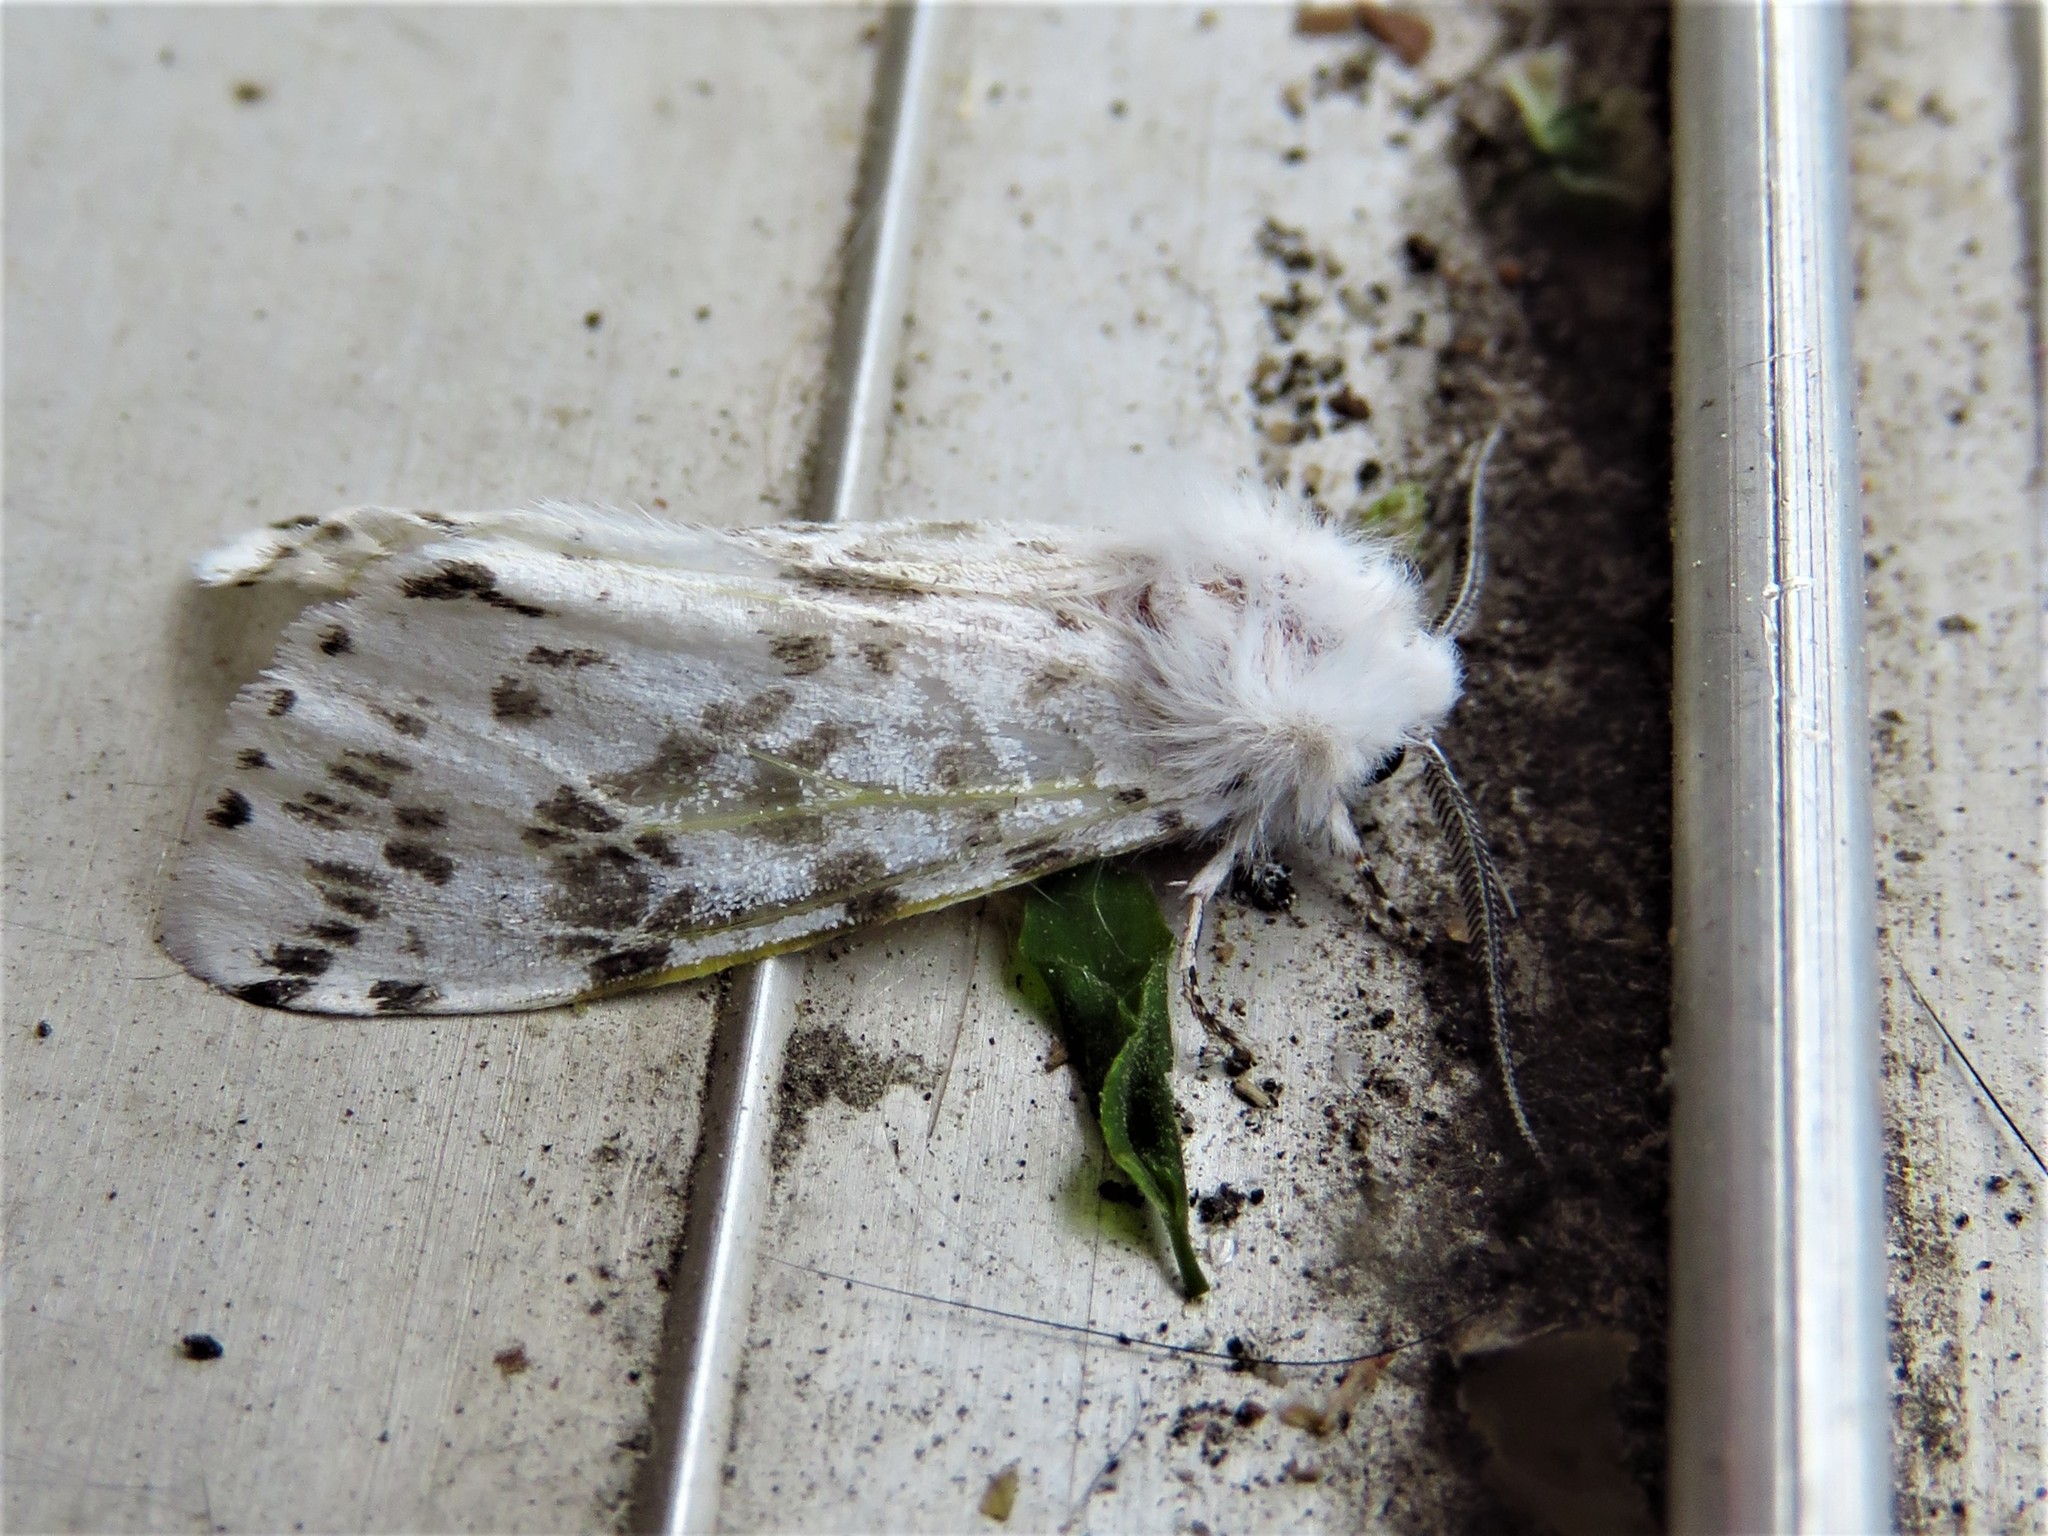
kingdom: Animalia
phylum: Arthropoda
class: Insecta
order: Lepidoptera
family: Erebidae
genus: Hyphantria
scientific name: Hyphantria cunea
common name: American white moth
